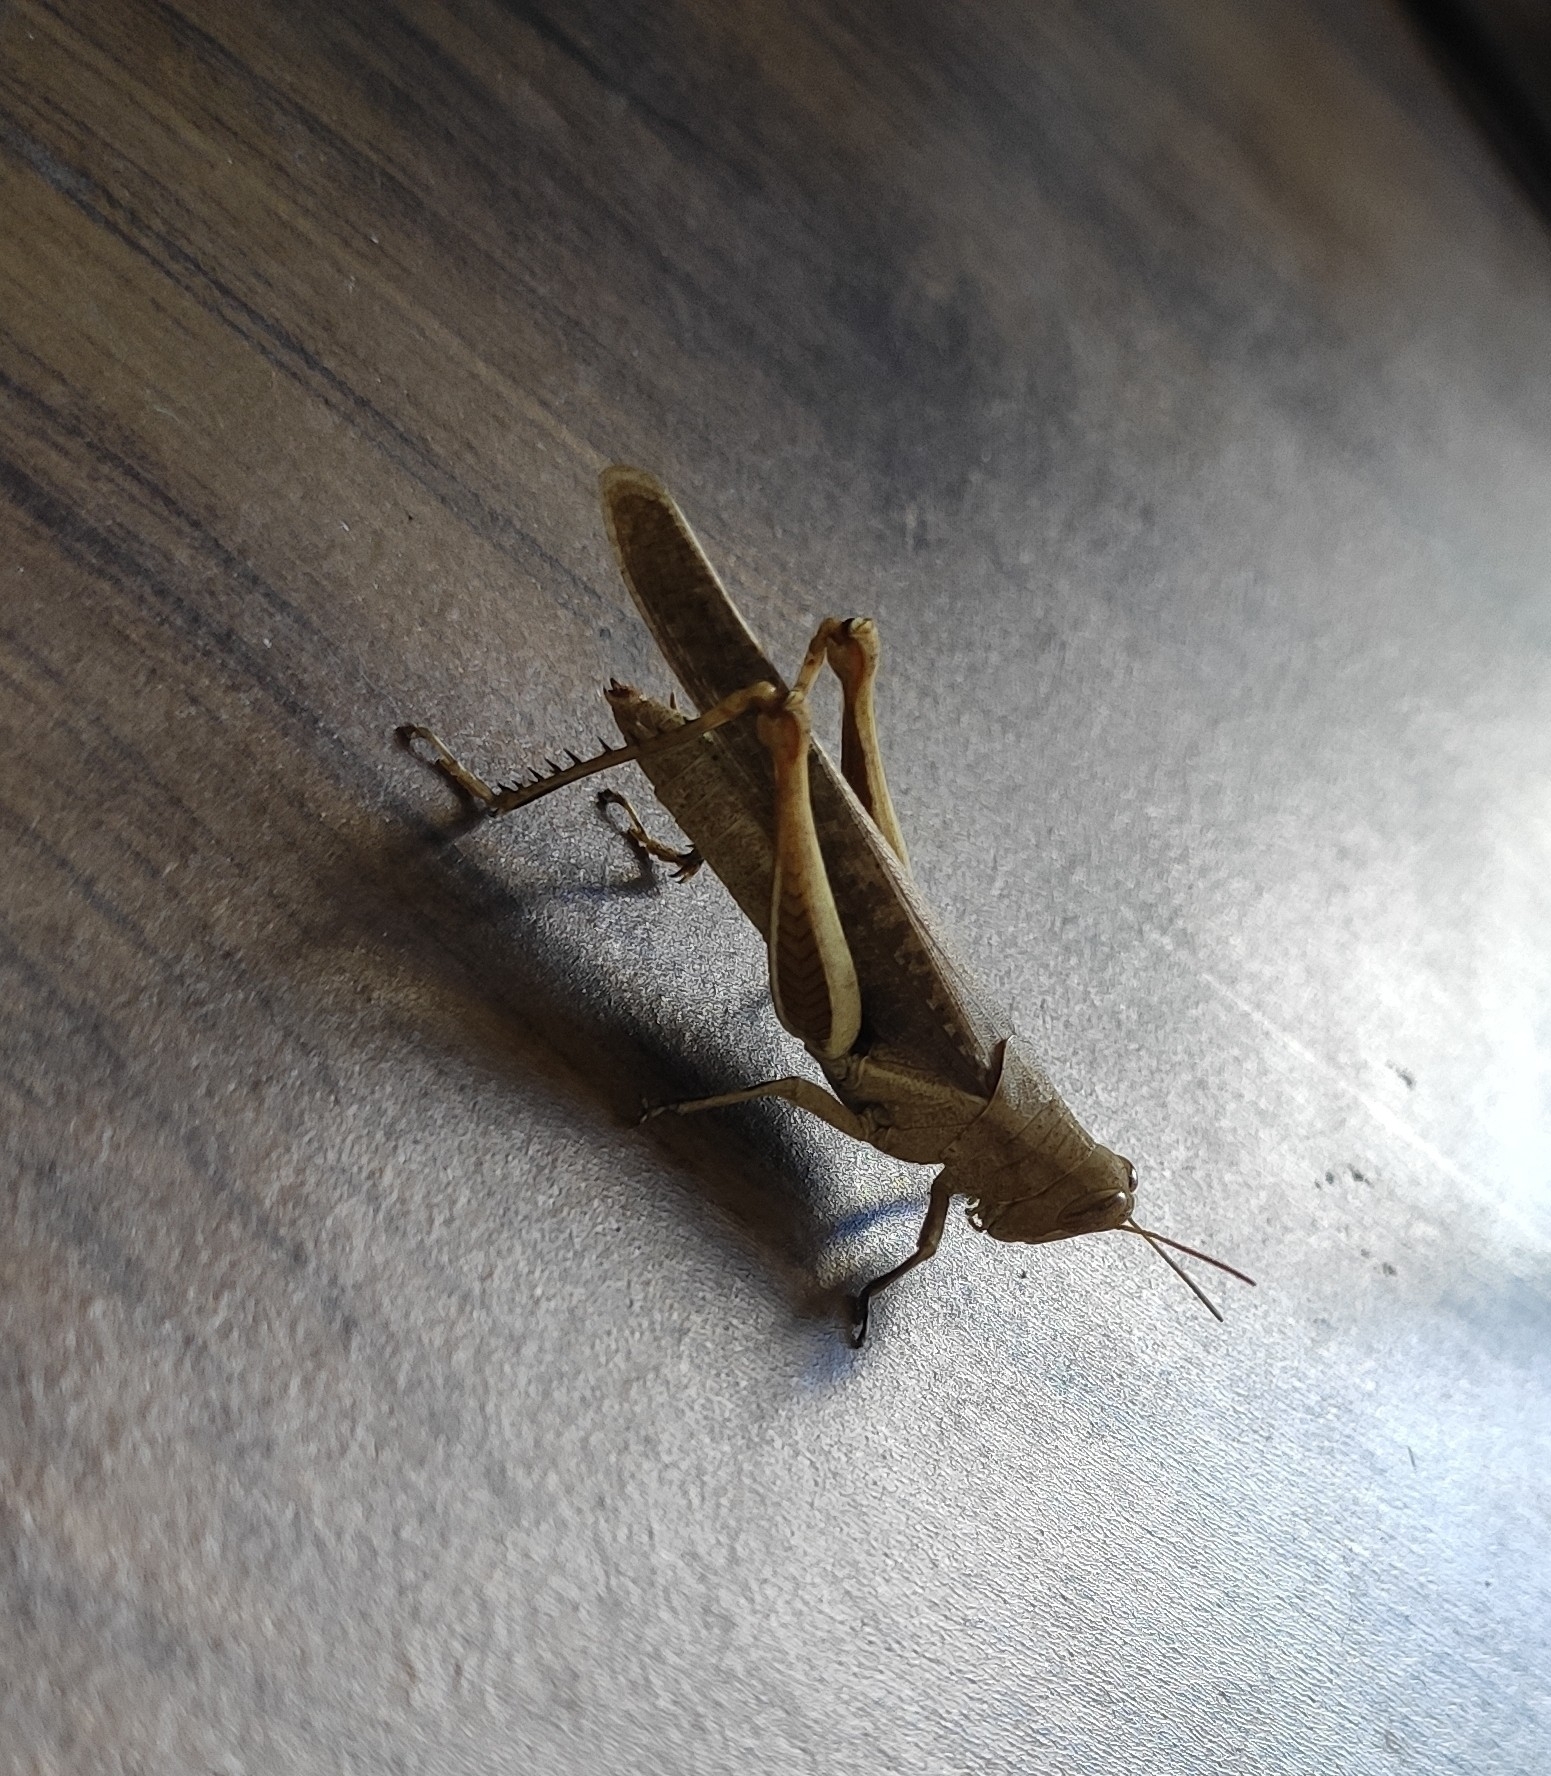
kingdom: Animalia
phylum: Arthropoda
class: Insecta
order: Orthoptera
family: Acrididae
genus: Abracris
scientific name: Abracris flavolineata
